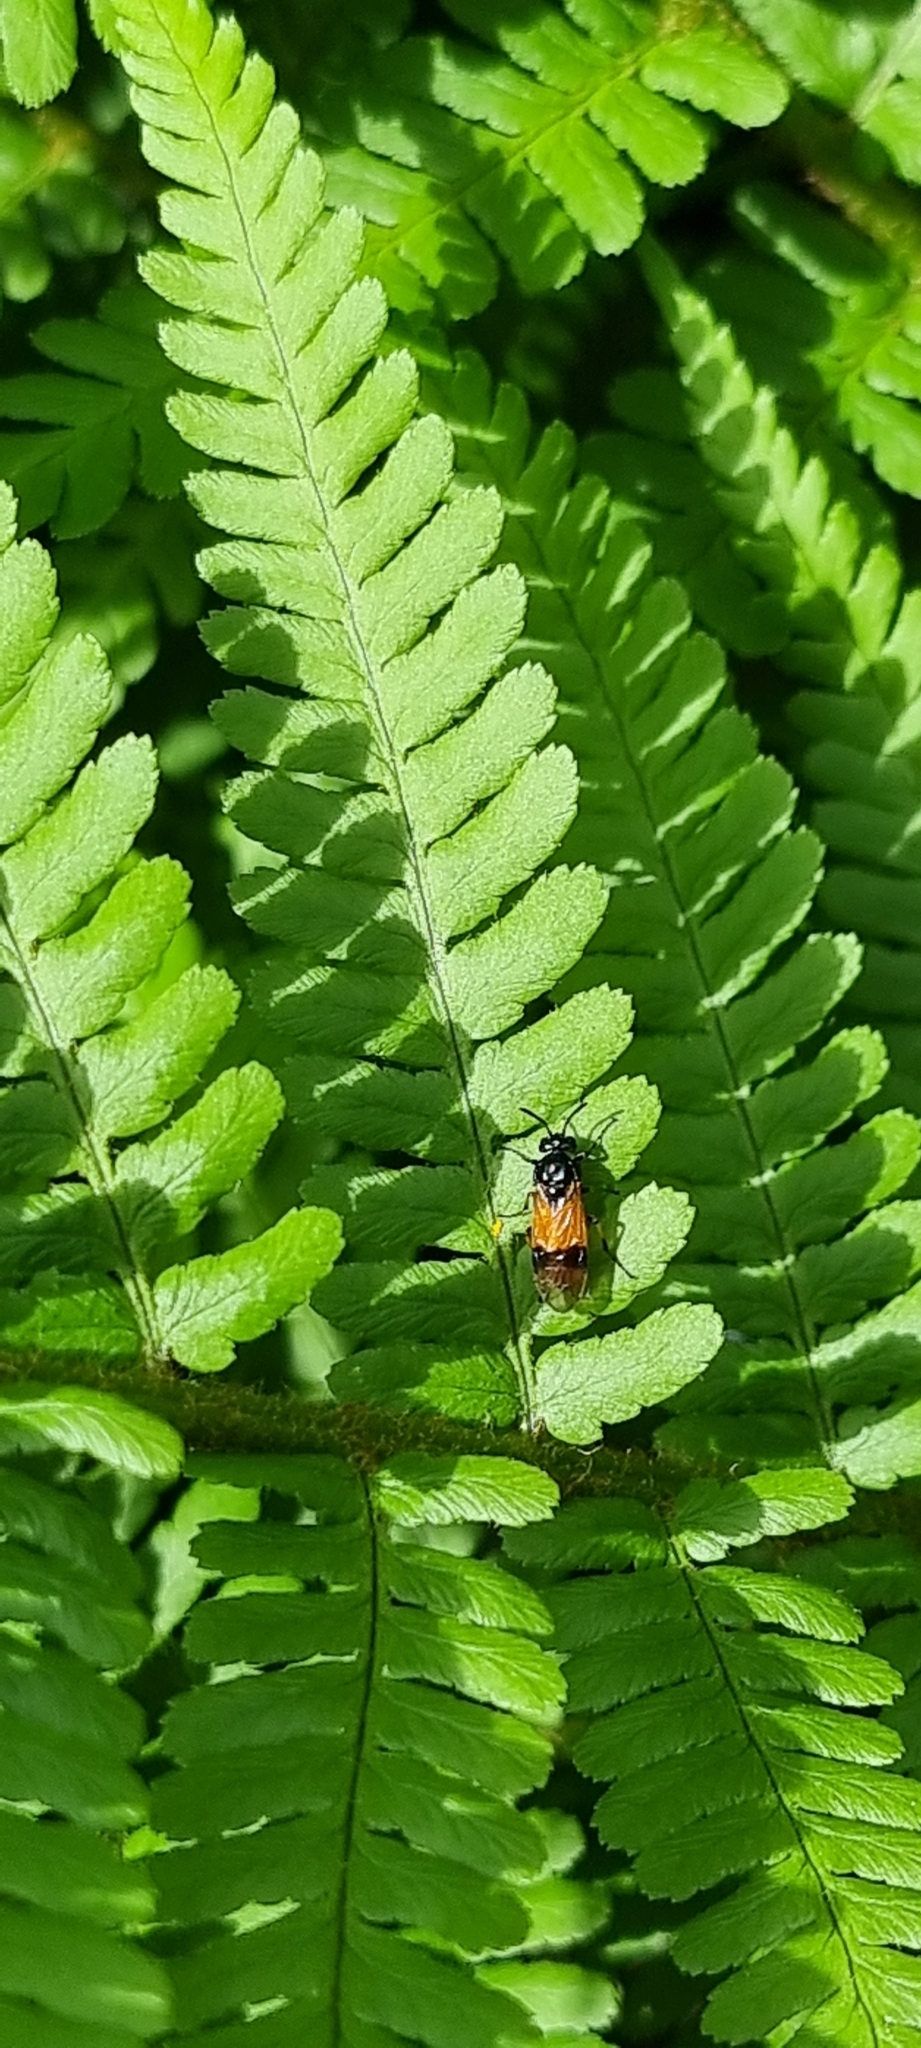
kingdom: Animalia
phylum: Arthropoda
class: Insecta
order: Hymenoptera
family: Argidae
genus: Arge
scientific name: Arge cyanocrocea
